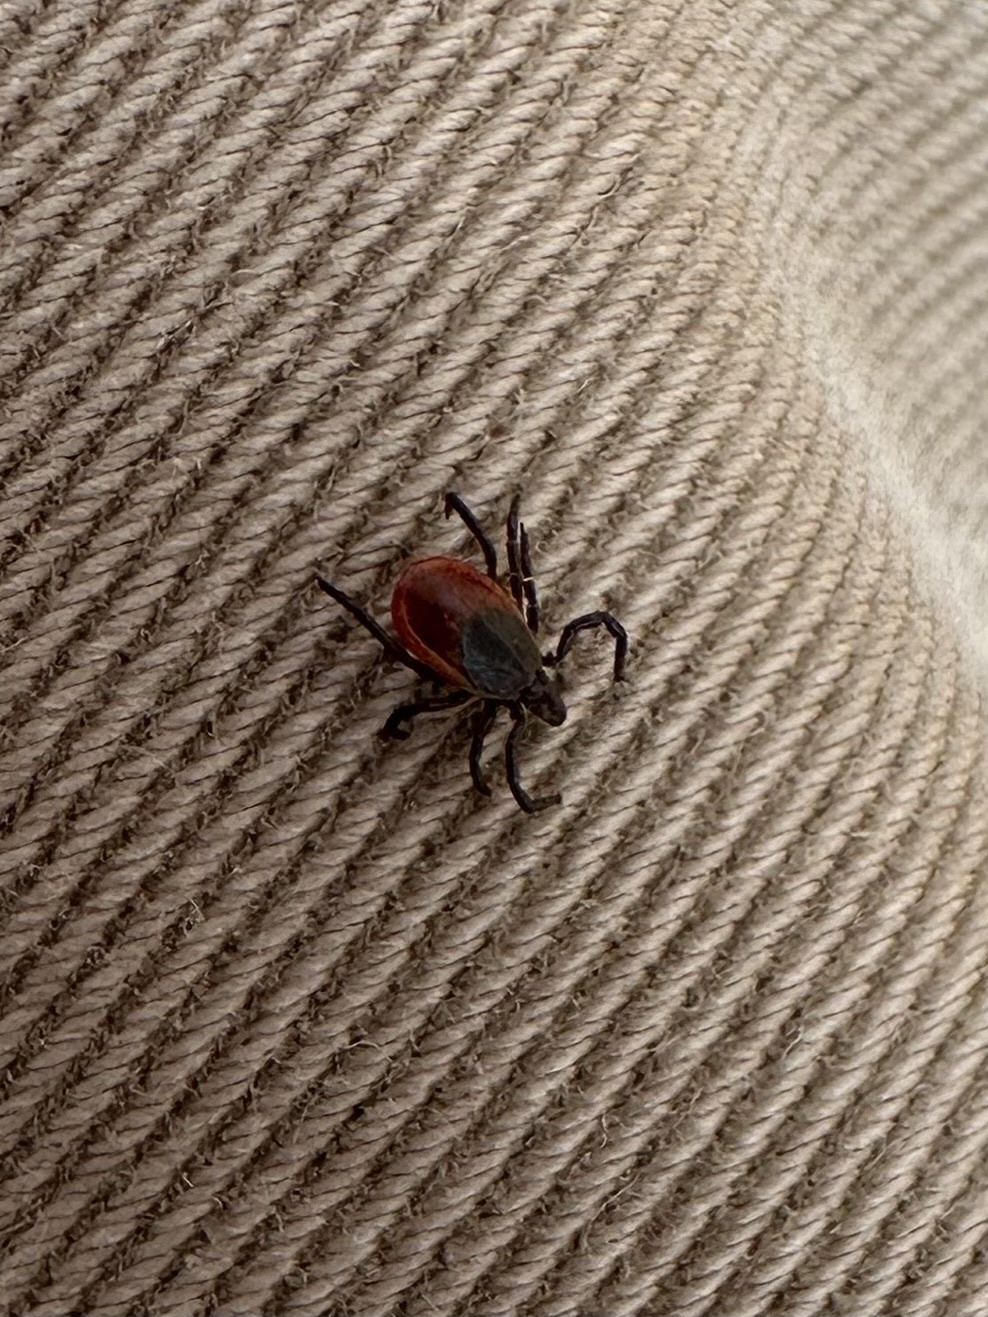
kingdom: Animalia
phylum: Arthropoda
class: Arachnida
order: Ixodida
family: Ixodidae
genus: Ixodes
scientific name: Ixodes scapularis
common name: Black legged tick
